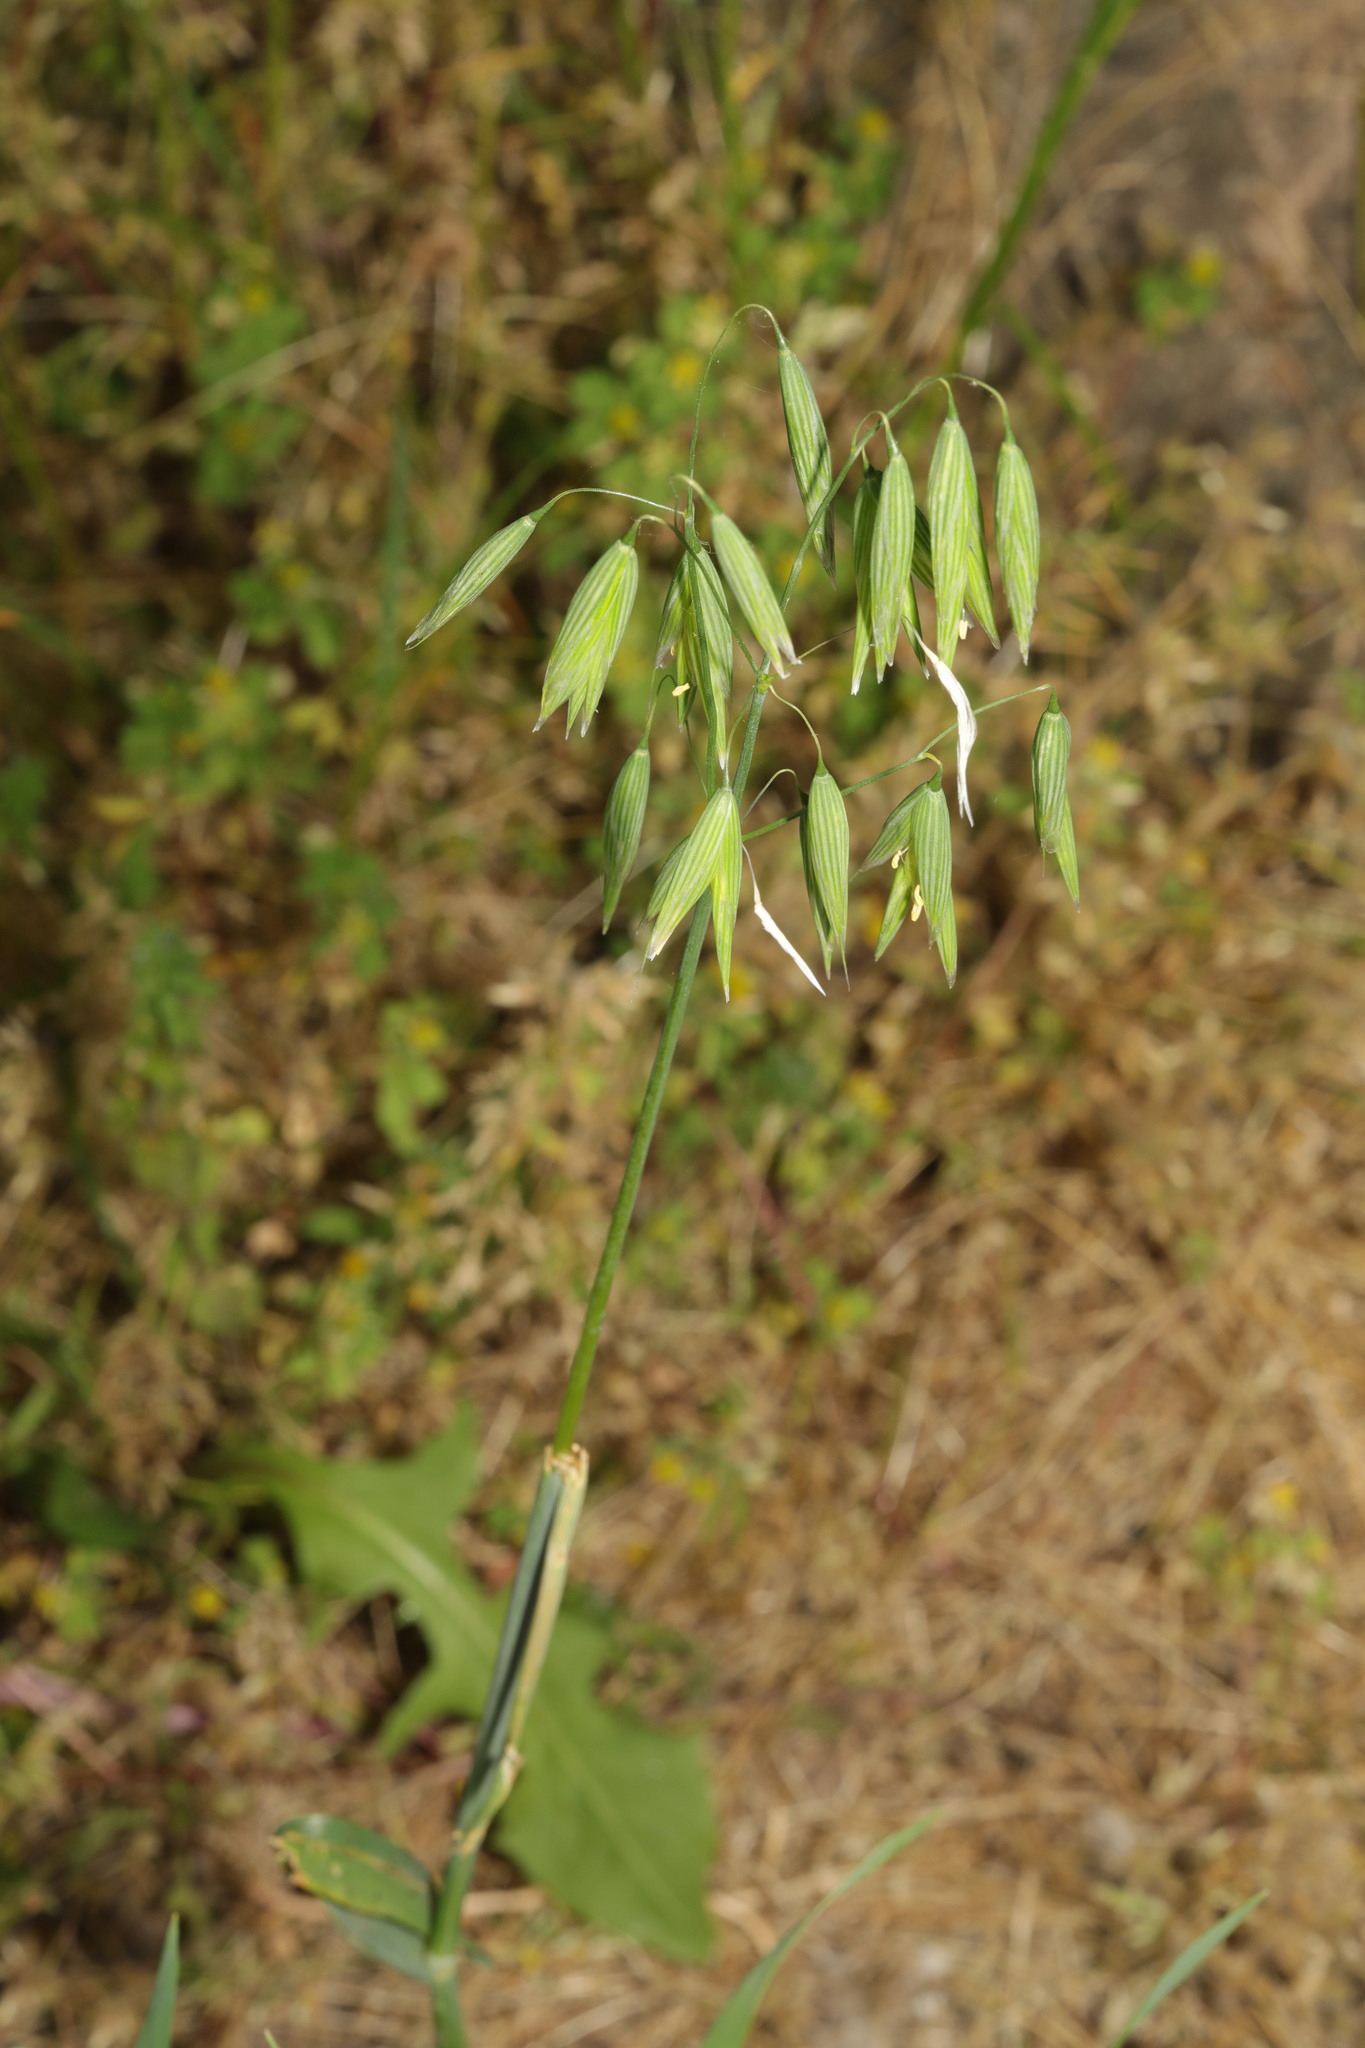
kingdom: Plantae
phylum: Tracheophyta
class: Liliopsida
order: Poales
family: Poaceae
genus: Avena
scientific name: Avena sativa
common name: Oat
